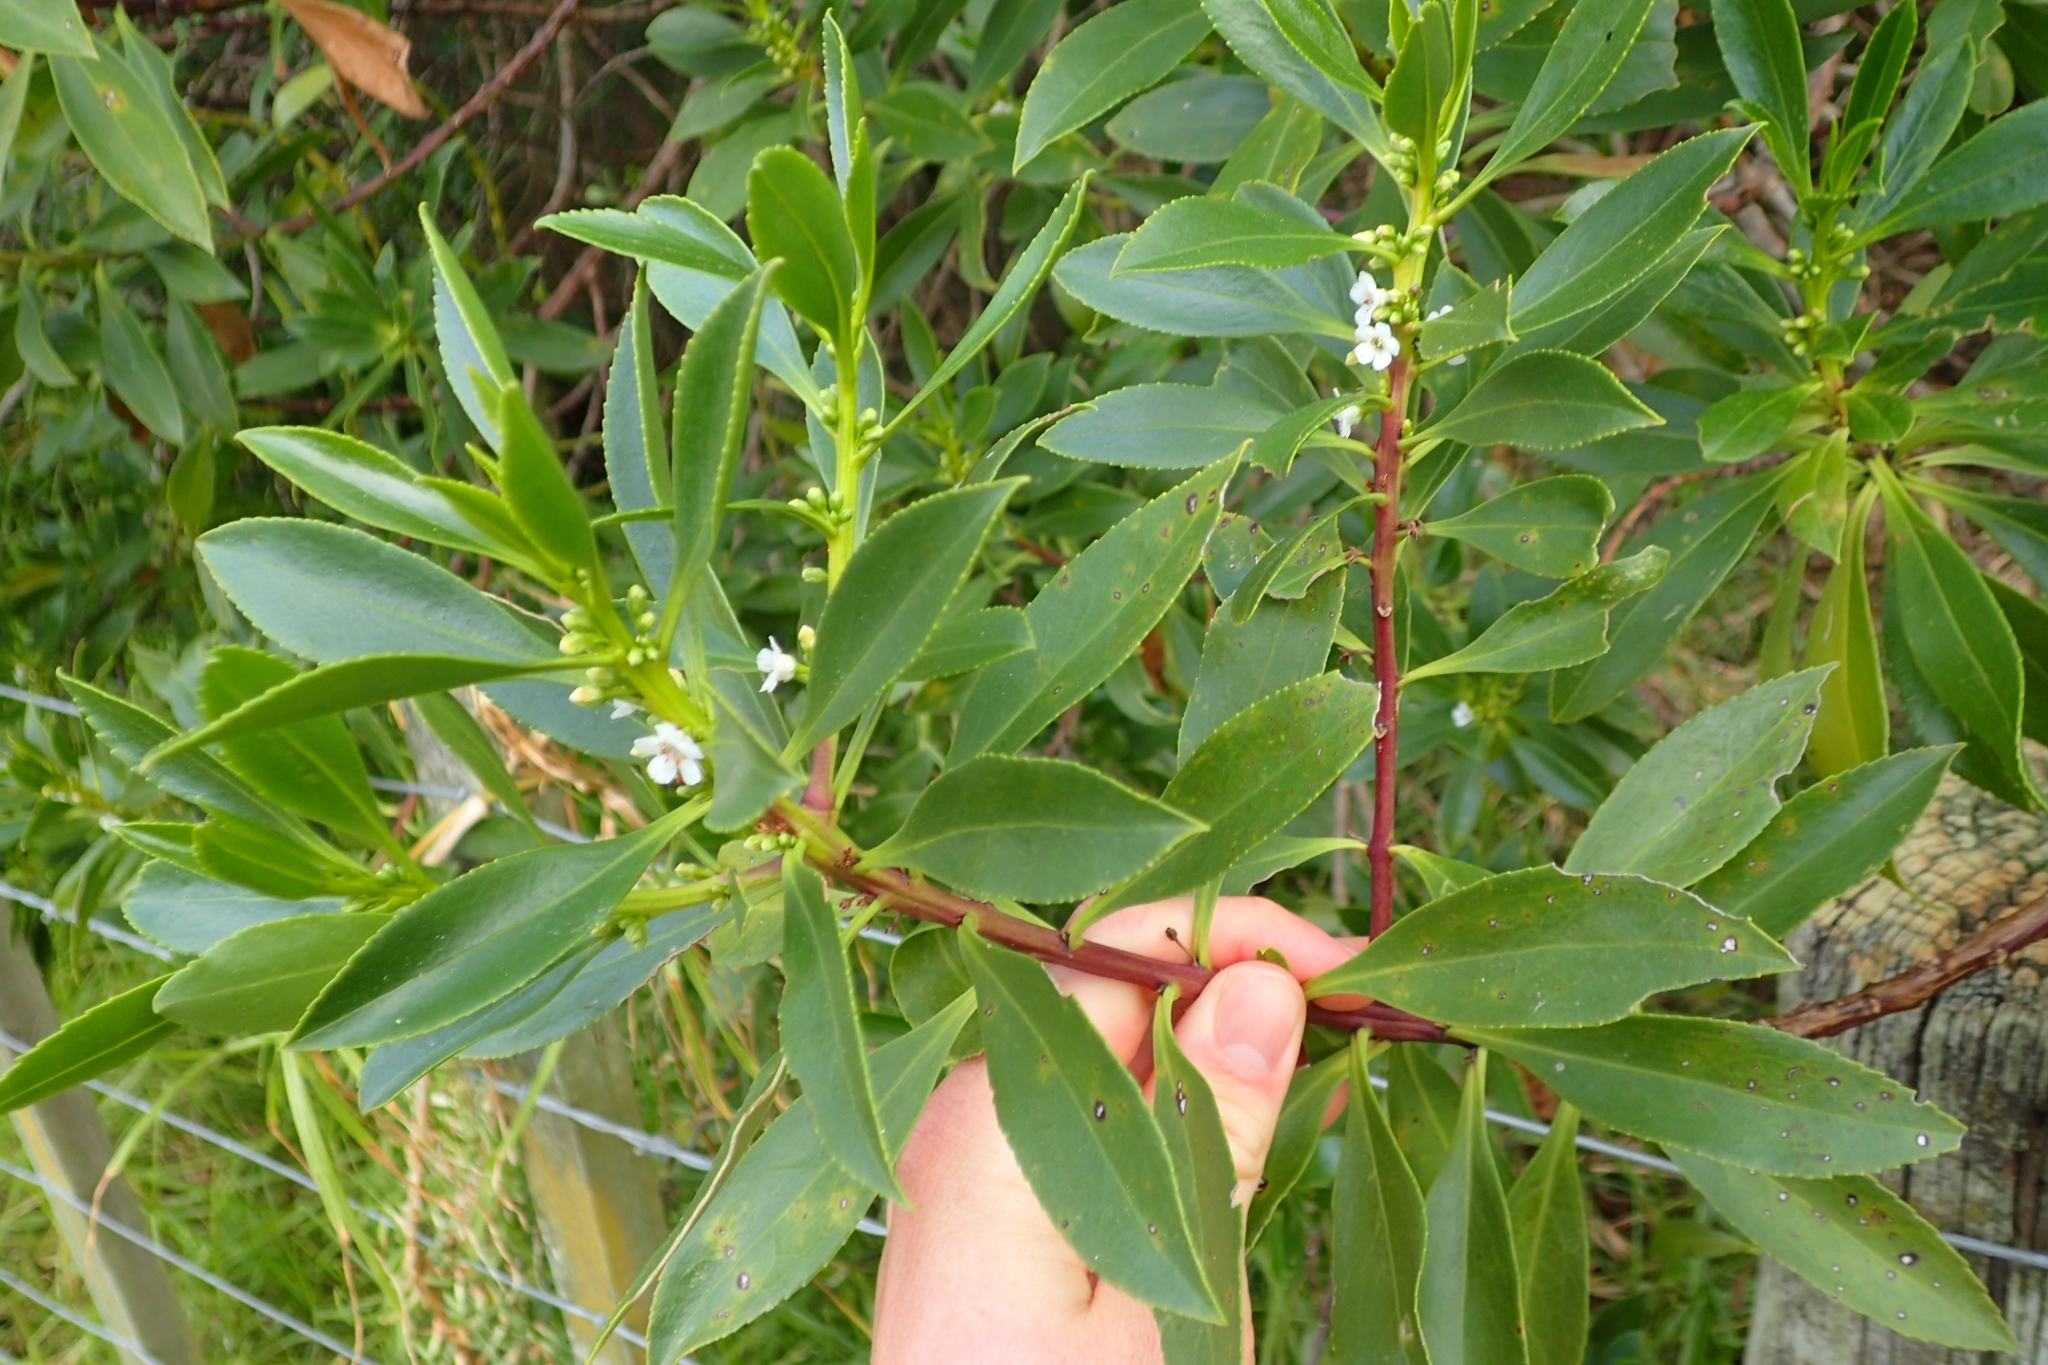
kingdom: Plantae
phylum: Tracheophyta
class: Magnoliopsida
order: Lamiales
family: Scrophulariaceae
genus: Myoporum
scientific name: Myoporum insulare
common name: Common boobialla
